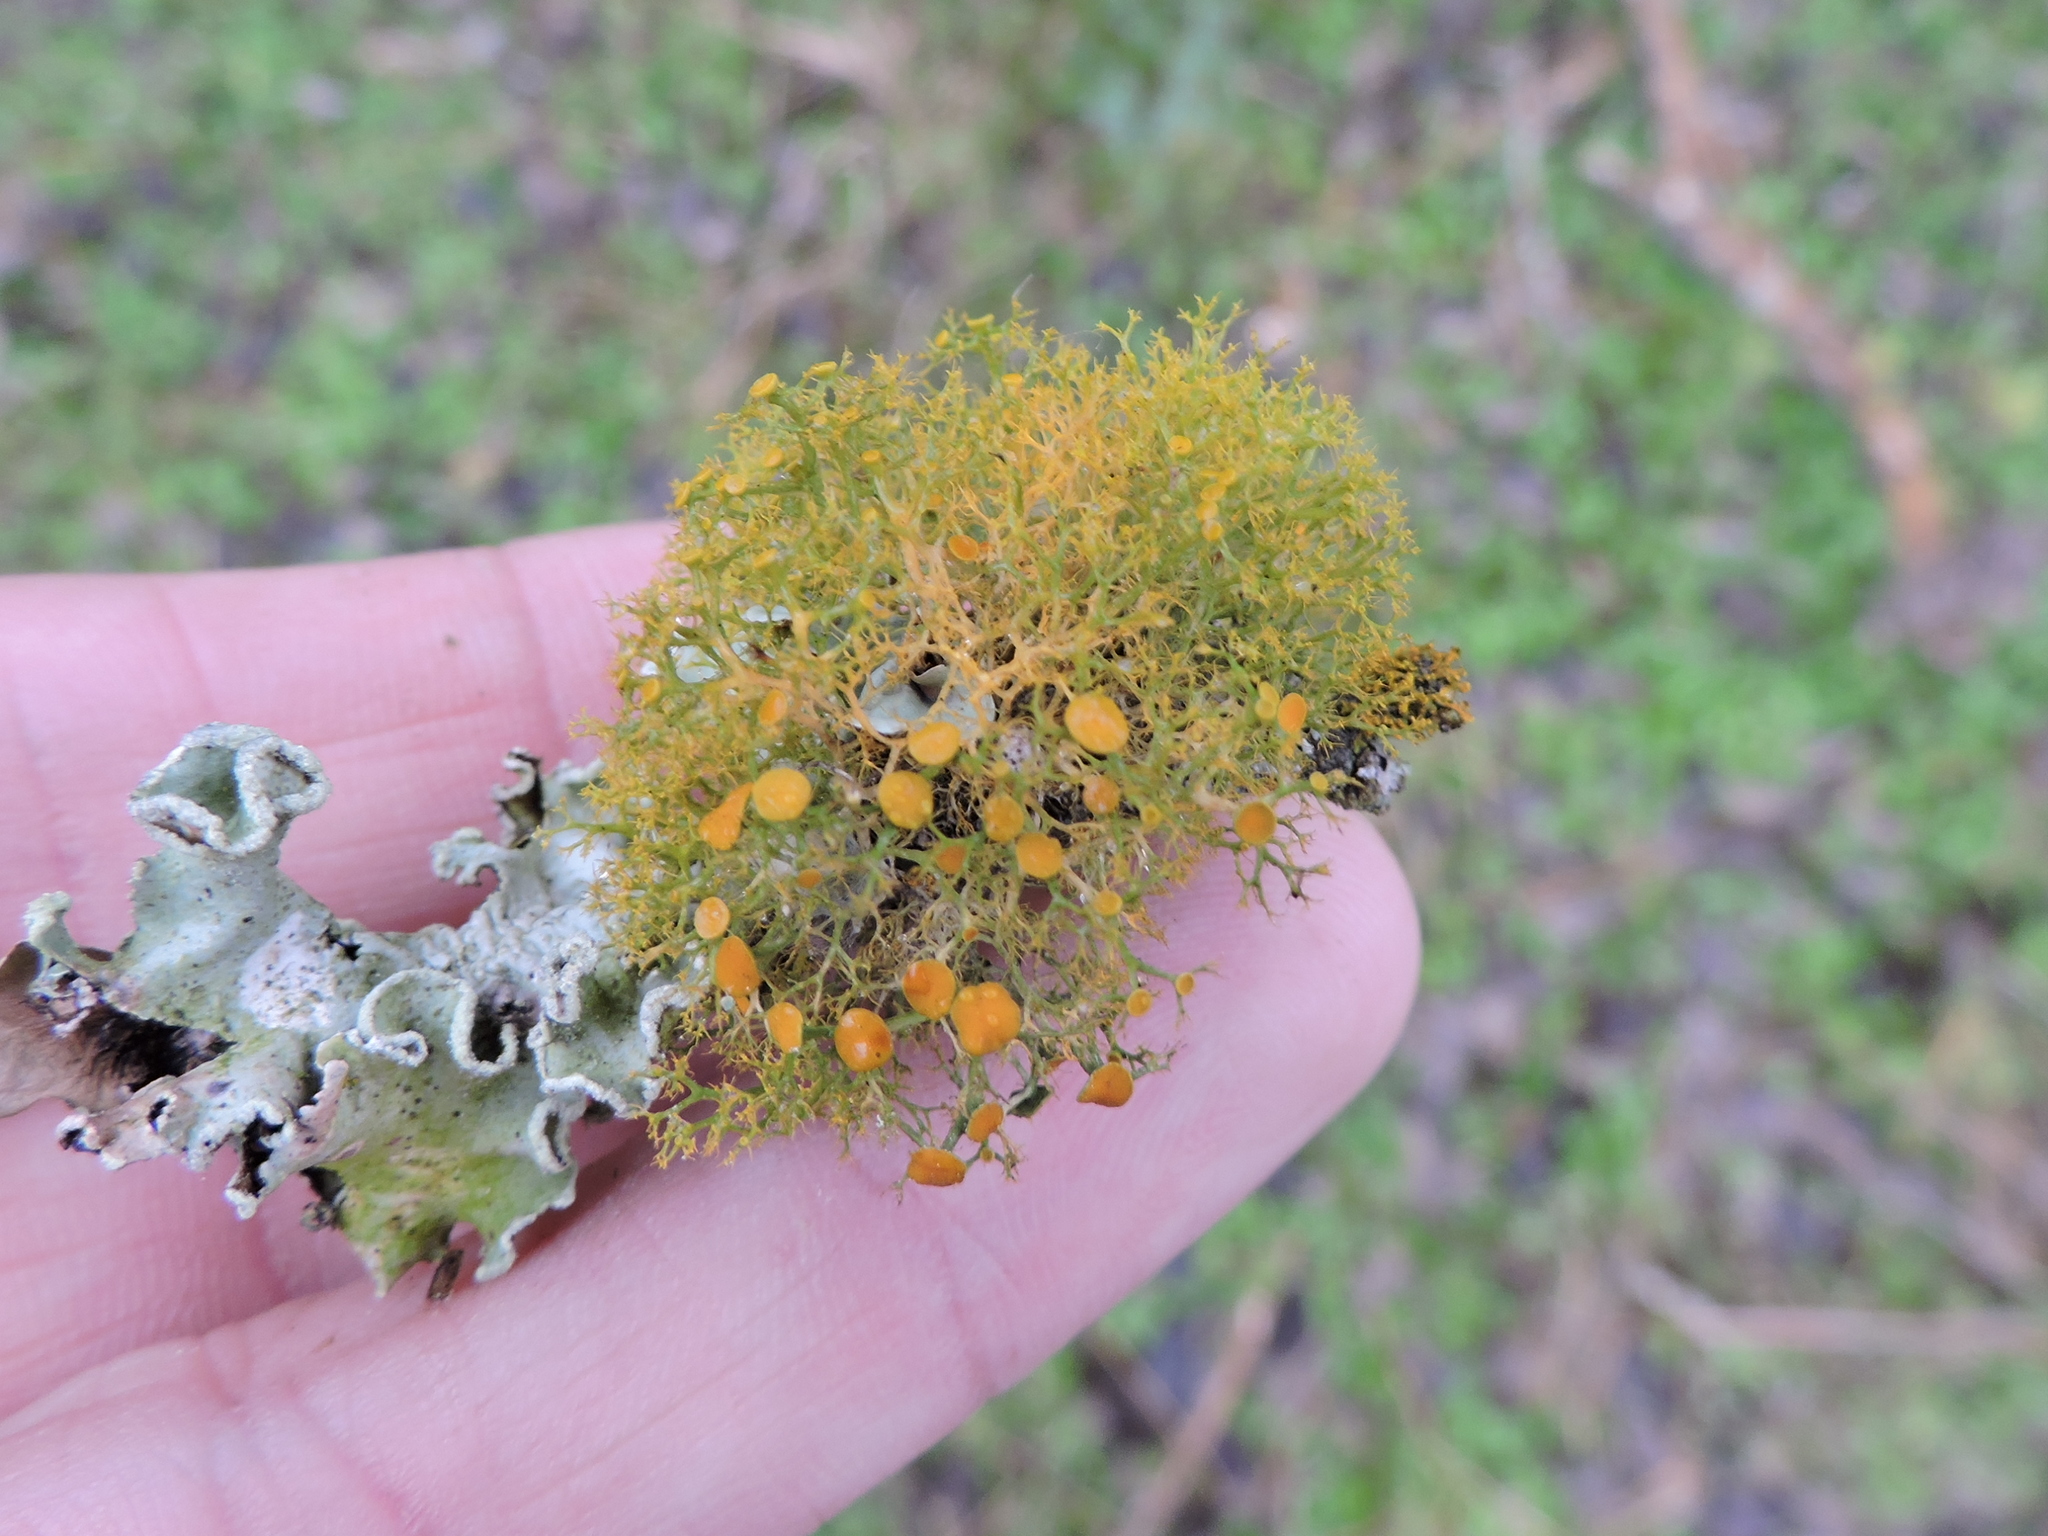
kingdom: Fungi
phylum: Ascomycota
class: Lecanoromycetes
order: Teloschistales
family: Teloschistaceae
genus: Teloschistes
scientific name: Teloschistes exilis
